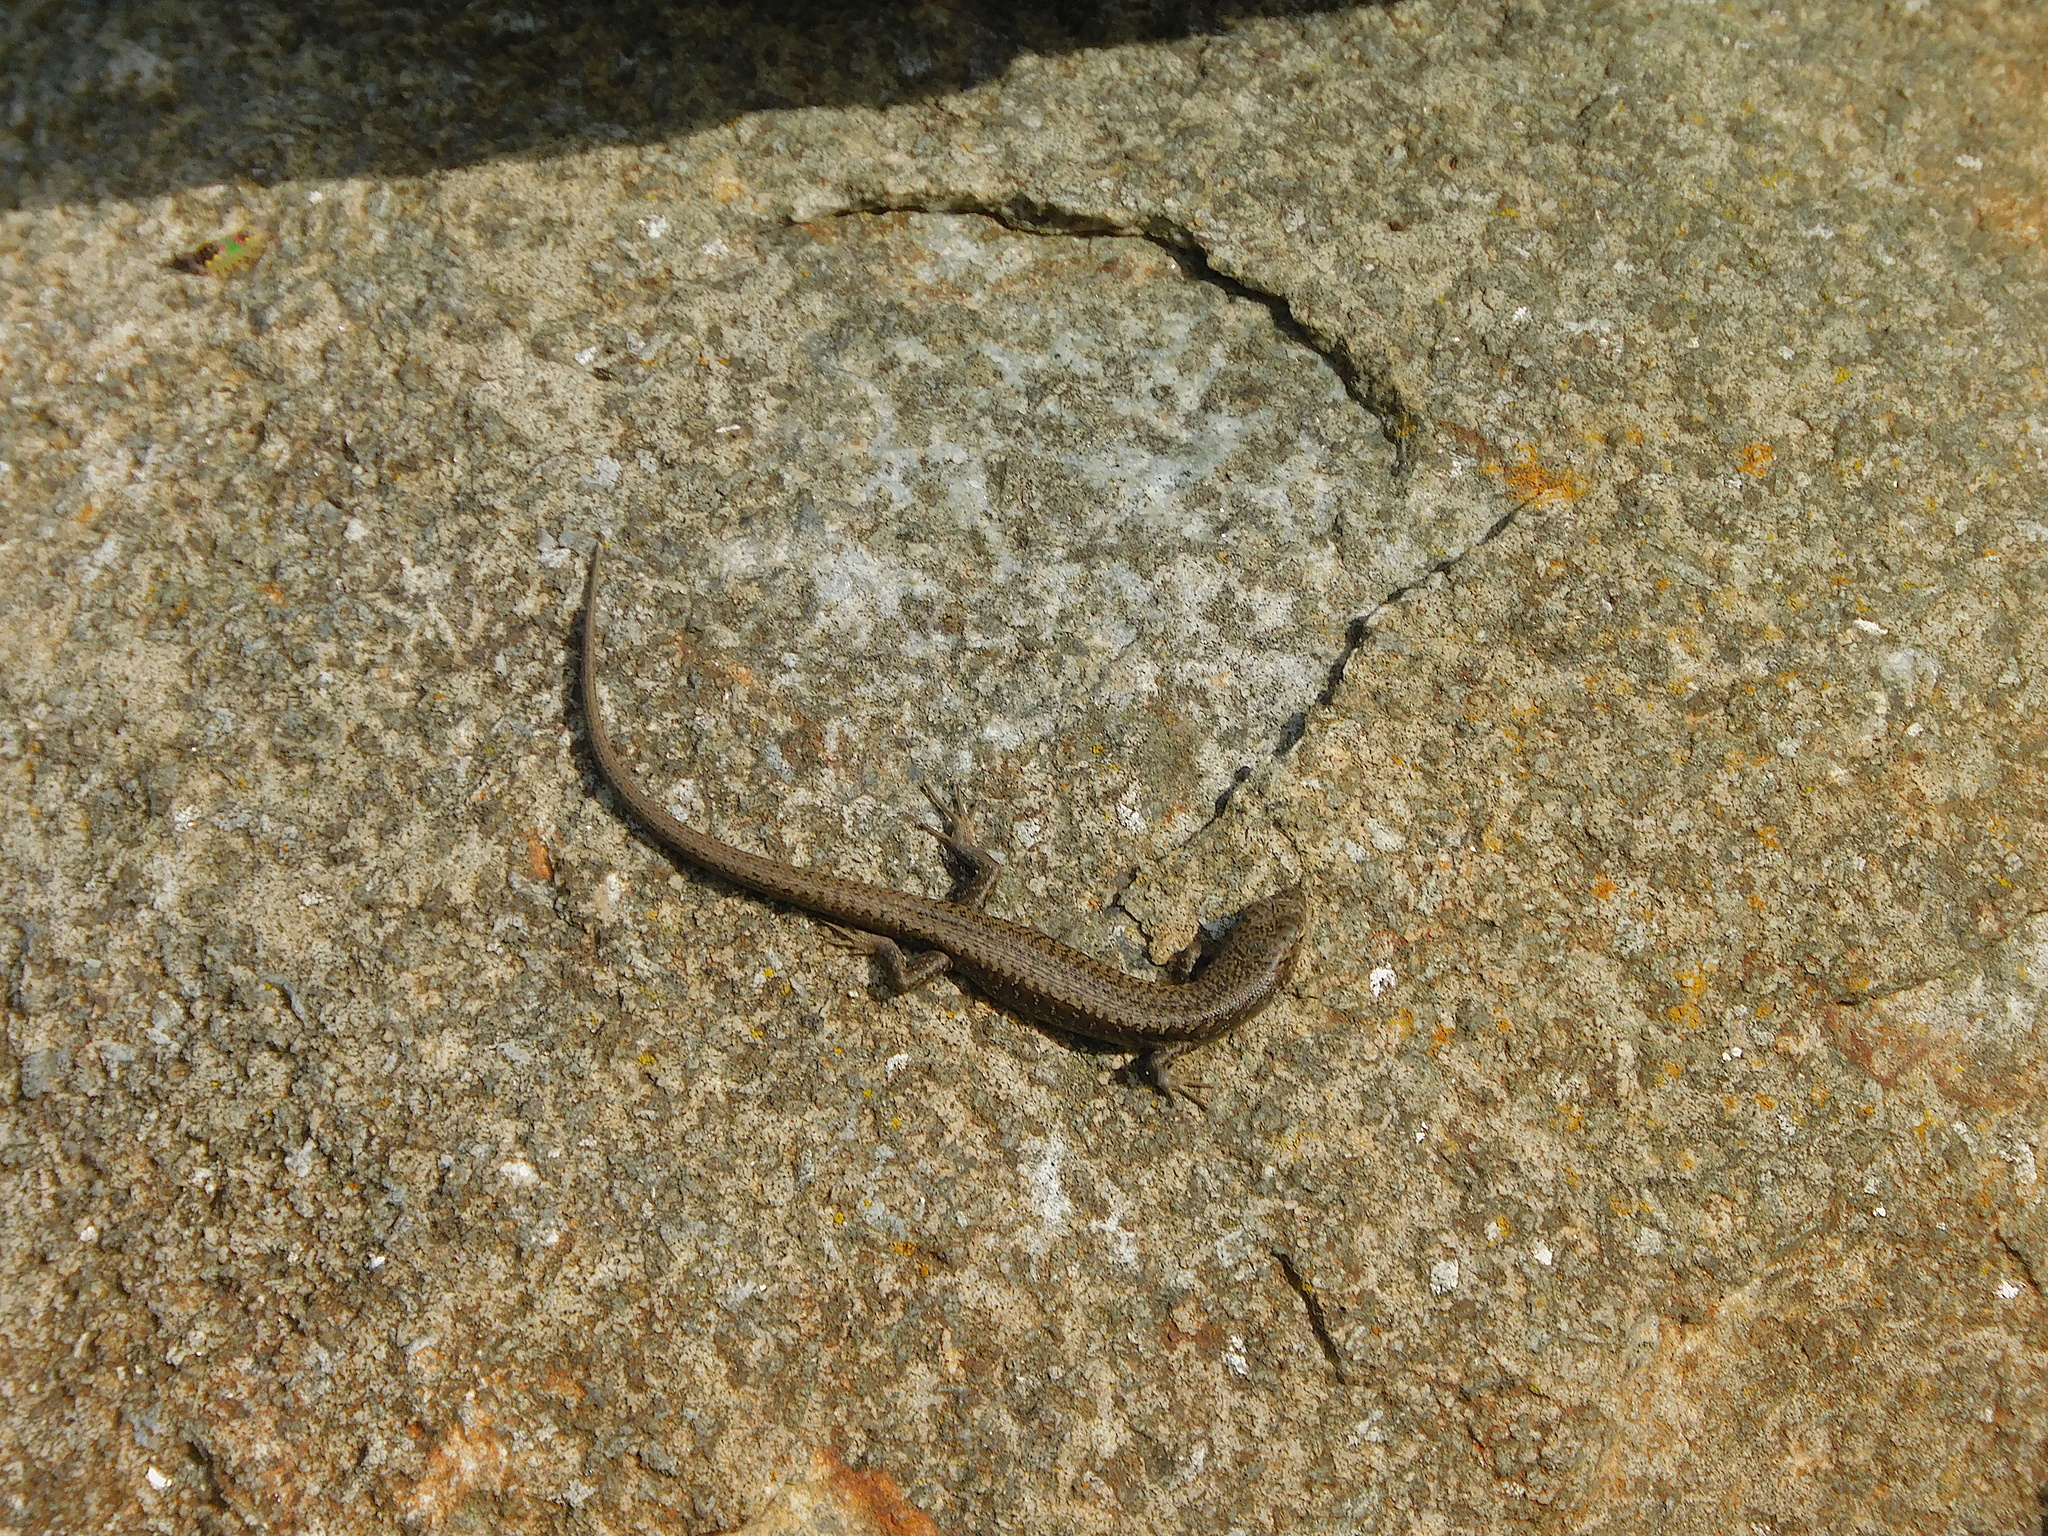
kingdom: Animalia
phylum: Chordata
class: Squamata
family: Scincidae
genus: Carinascincus
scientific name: Carinascincus ocellatus
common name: Ocellated cool-skink
